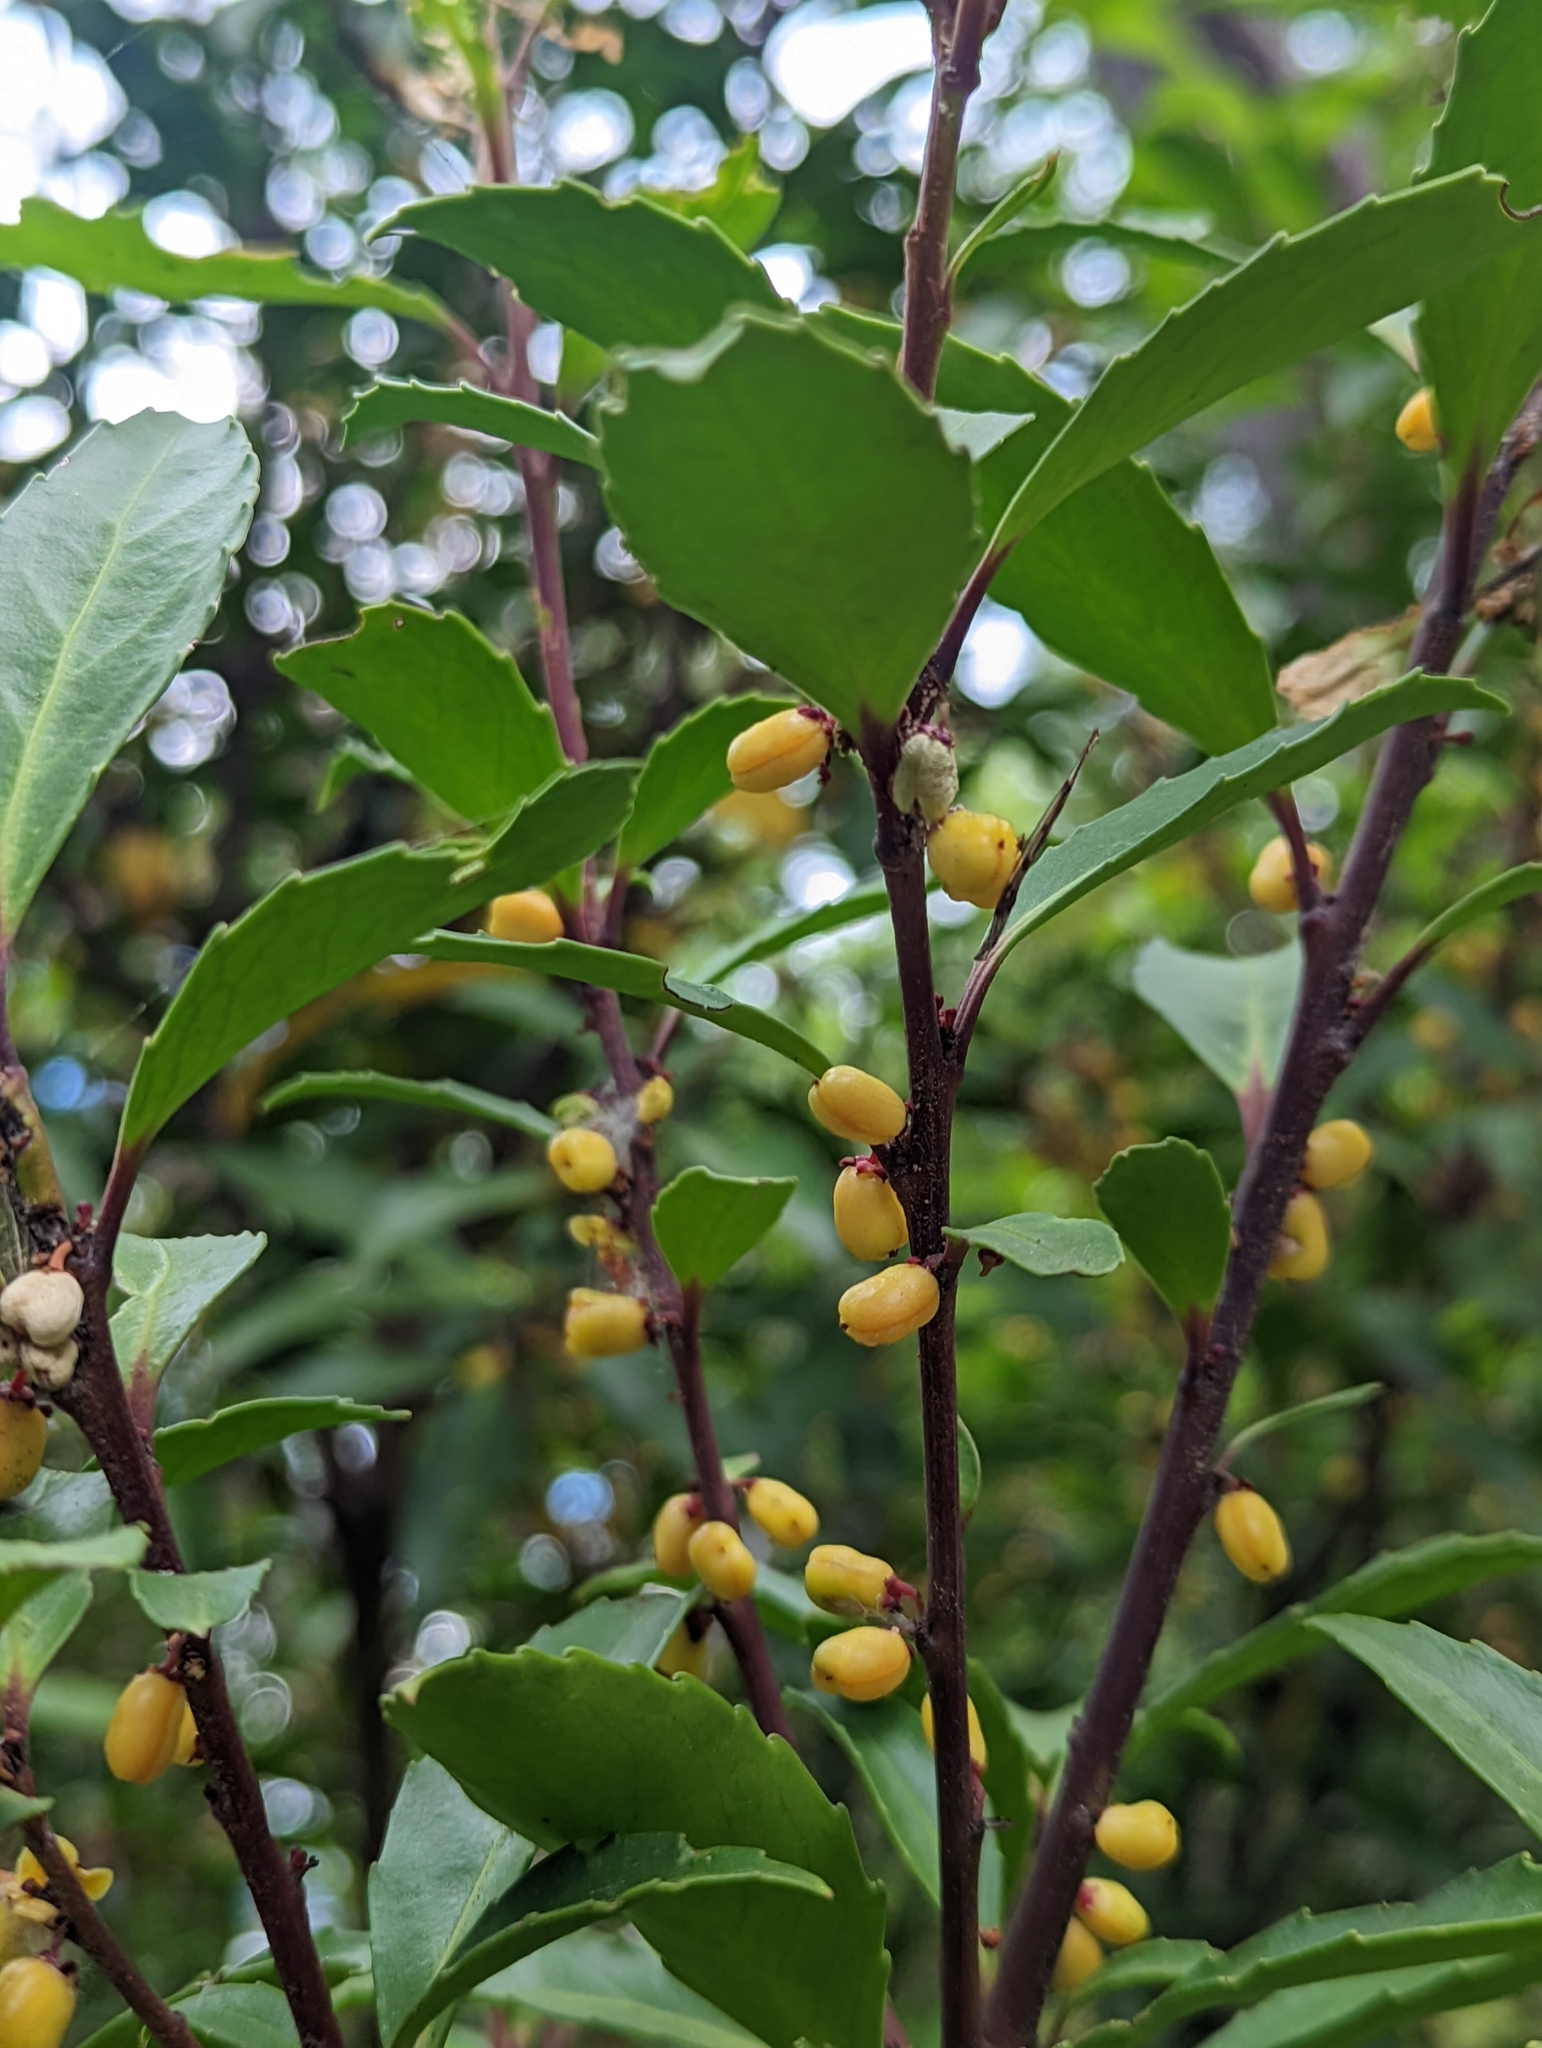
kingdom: Plantae
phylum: Tracheophyta
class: Magnoliopsida
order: Celastrales
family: Celastraceae
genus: Maytenus
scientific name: Maytenus magellanica
